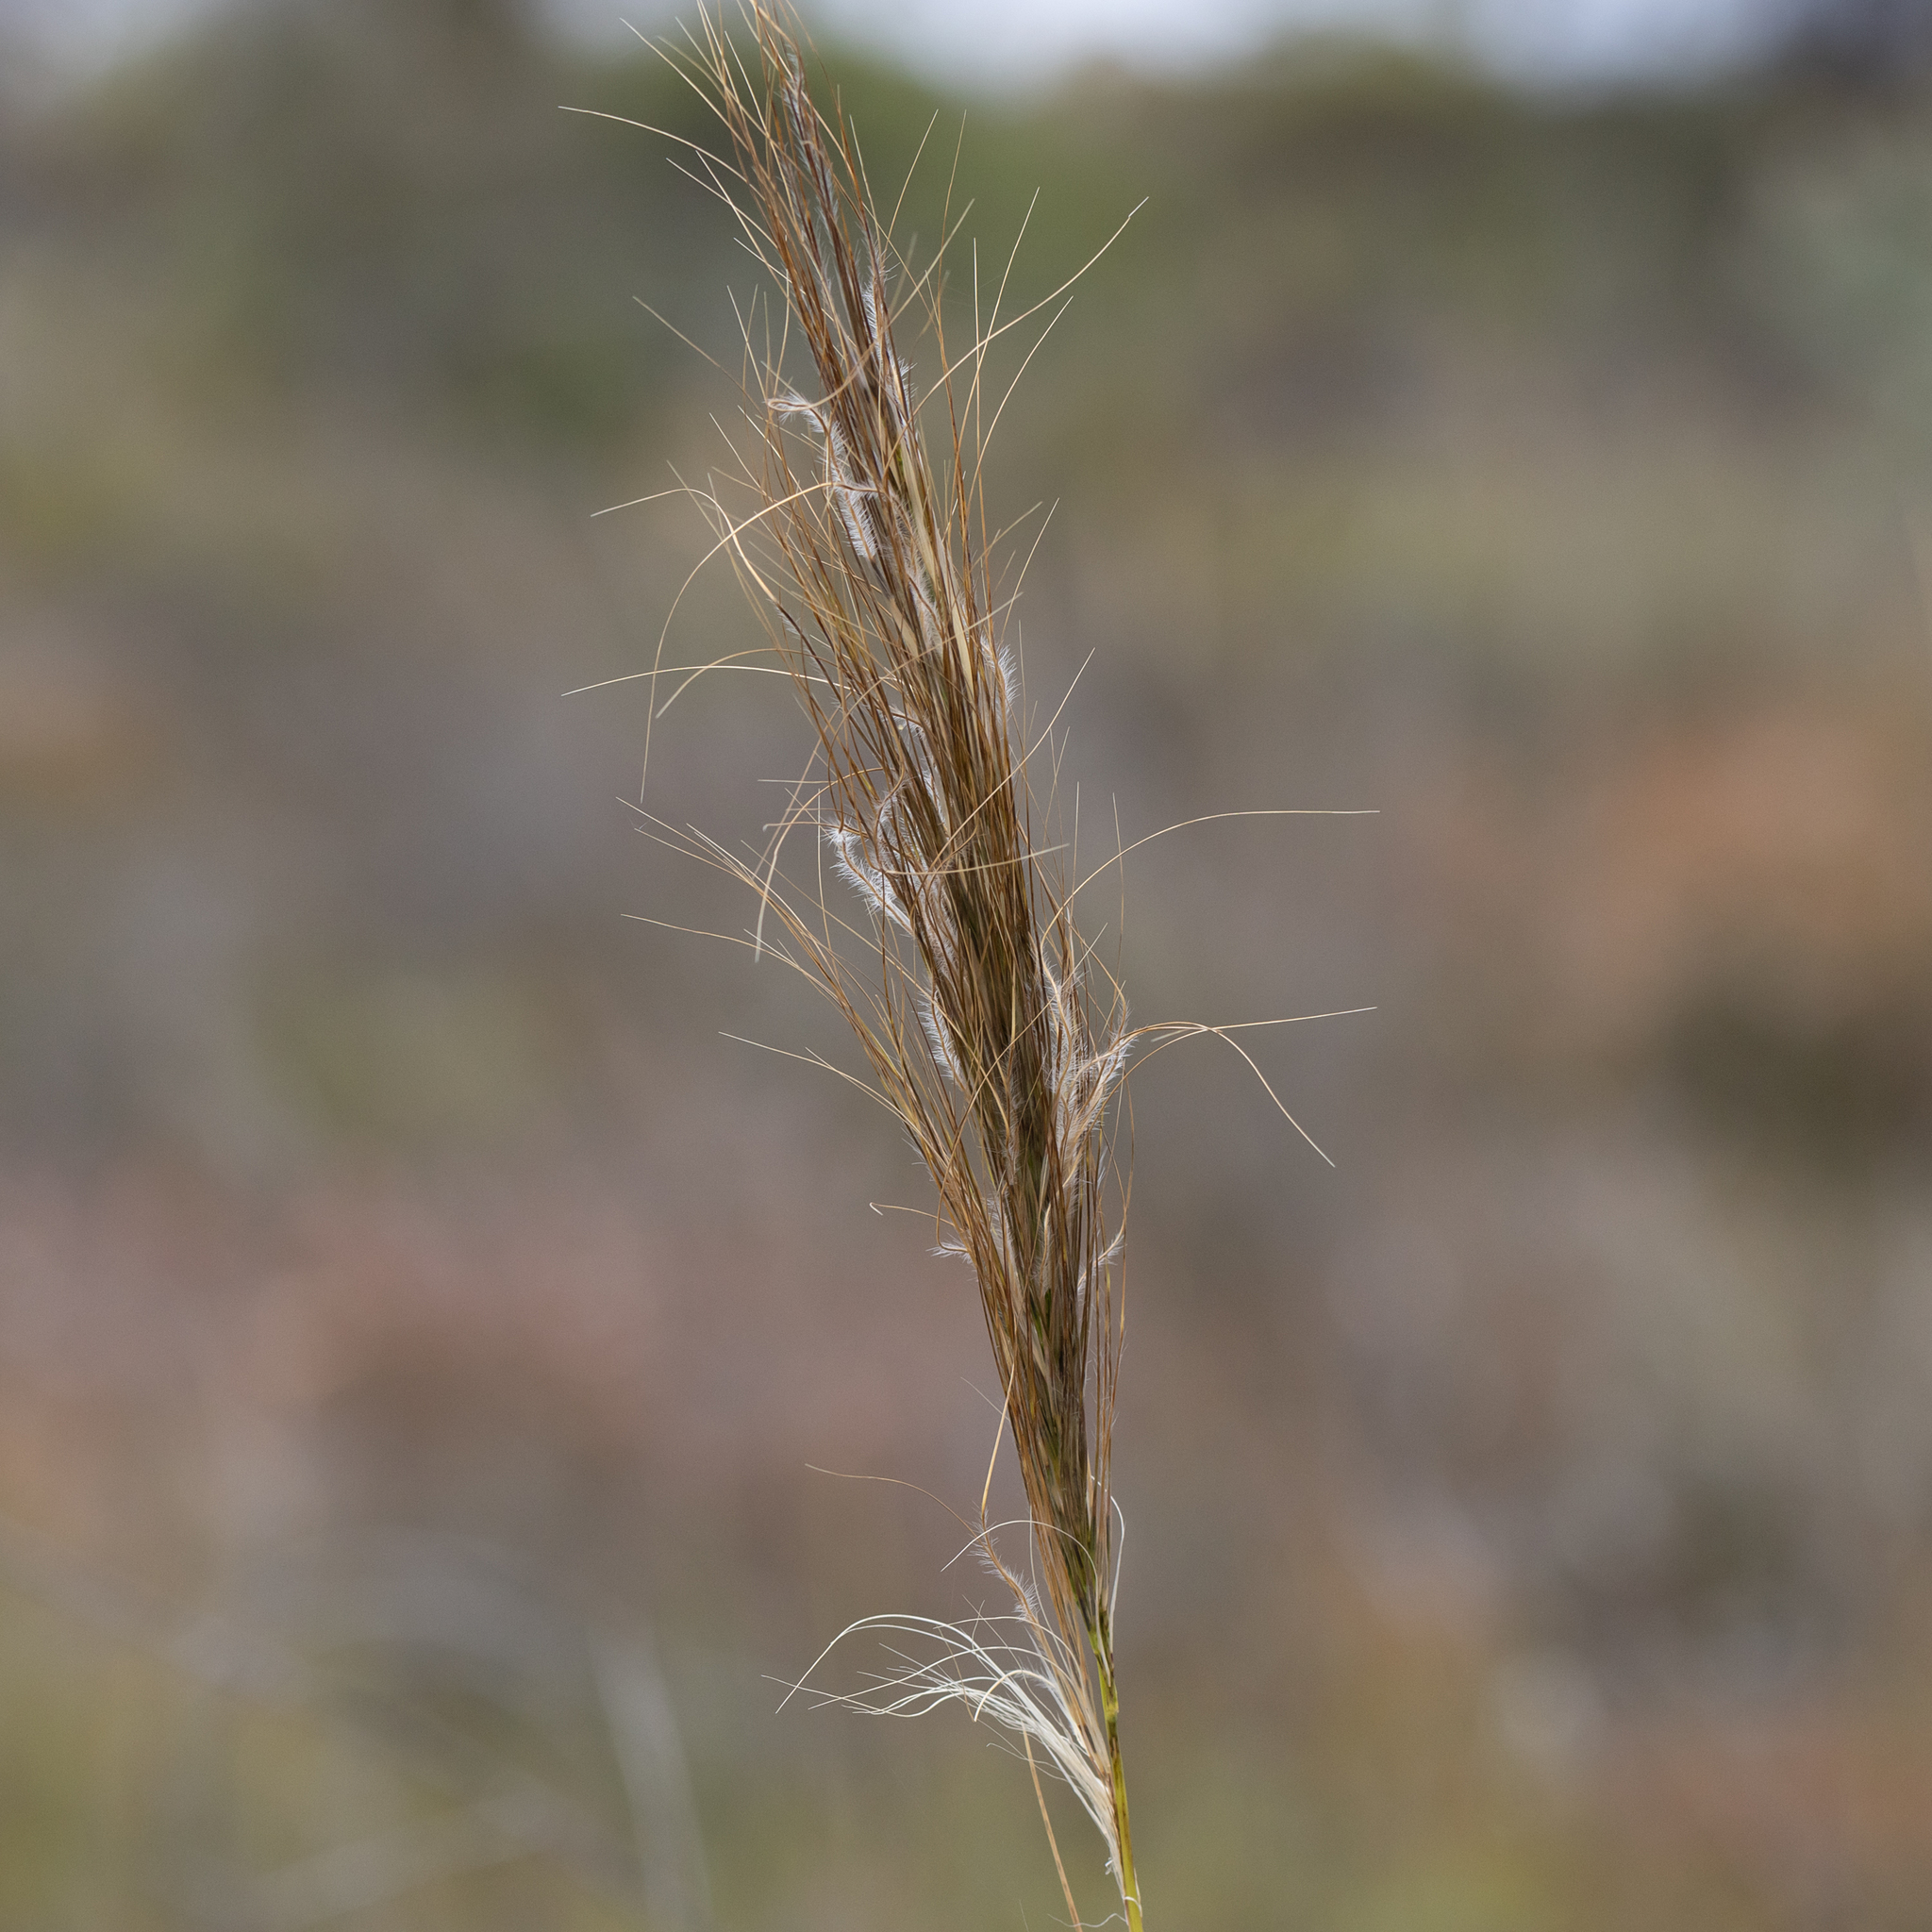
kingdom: Plantae
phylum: Tracheophyta
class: Liliopsida
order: Poales
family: Poaceae
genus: Austrostipa
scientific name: Austrostipa hemipogon
